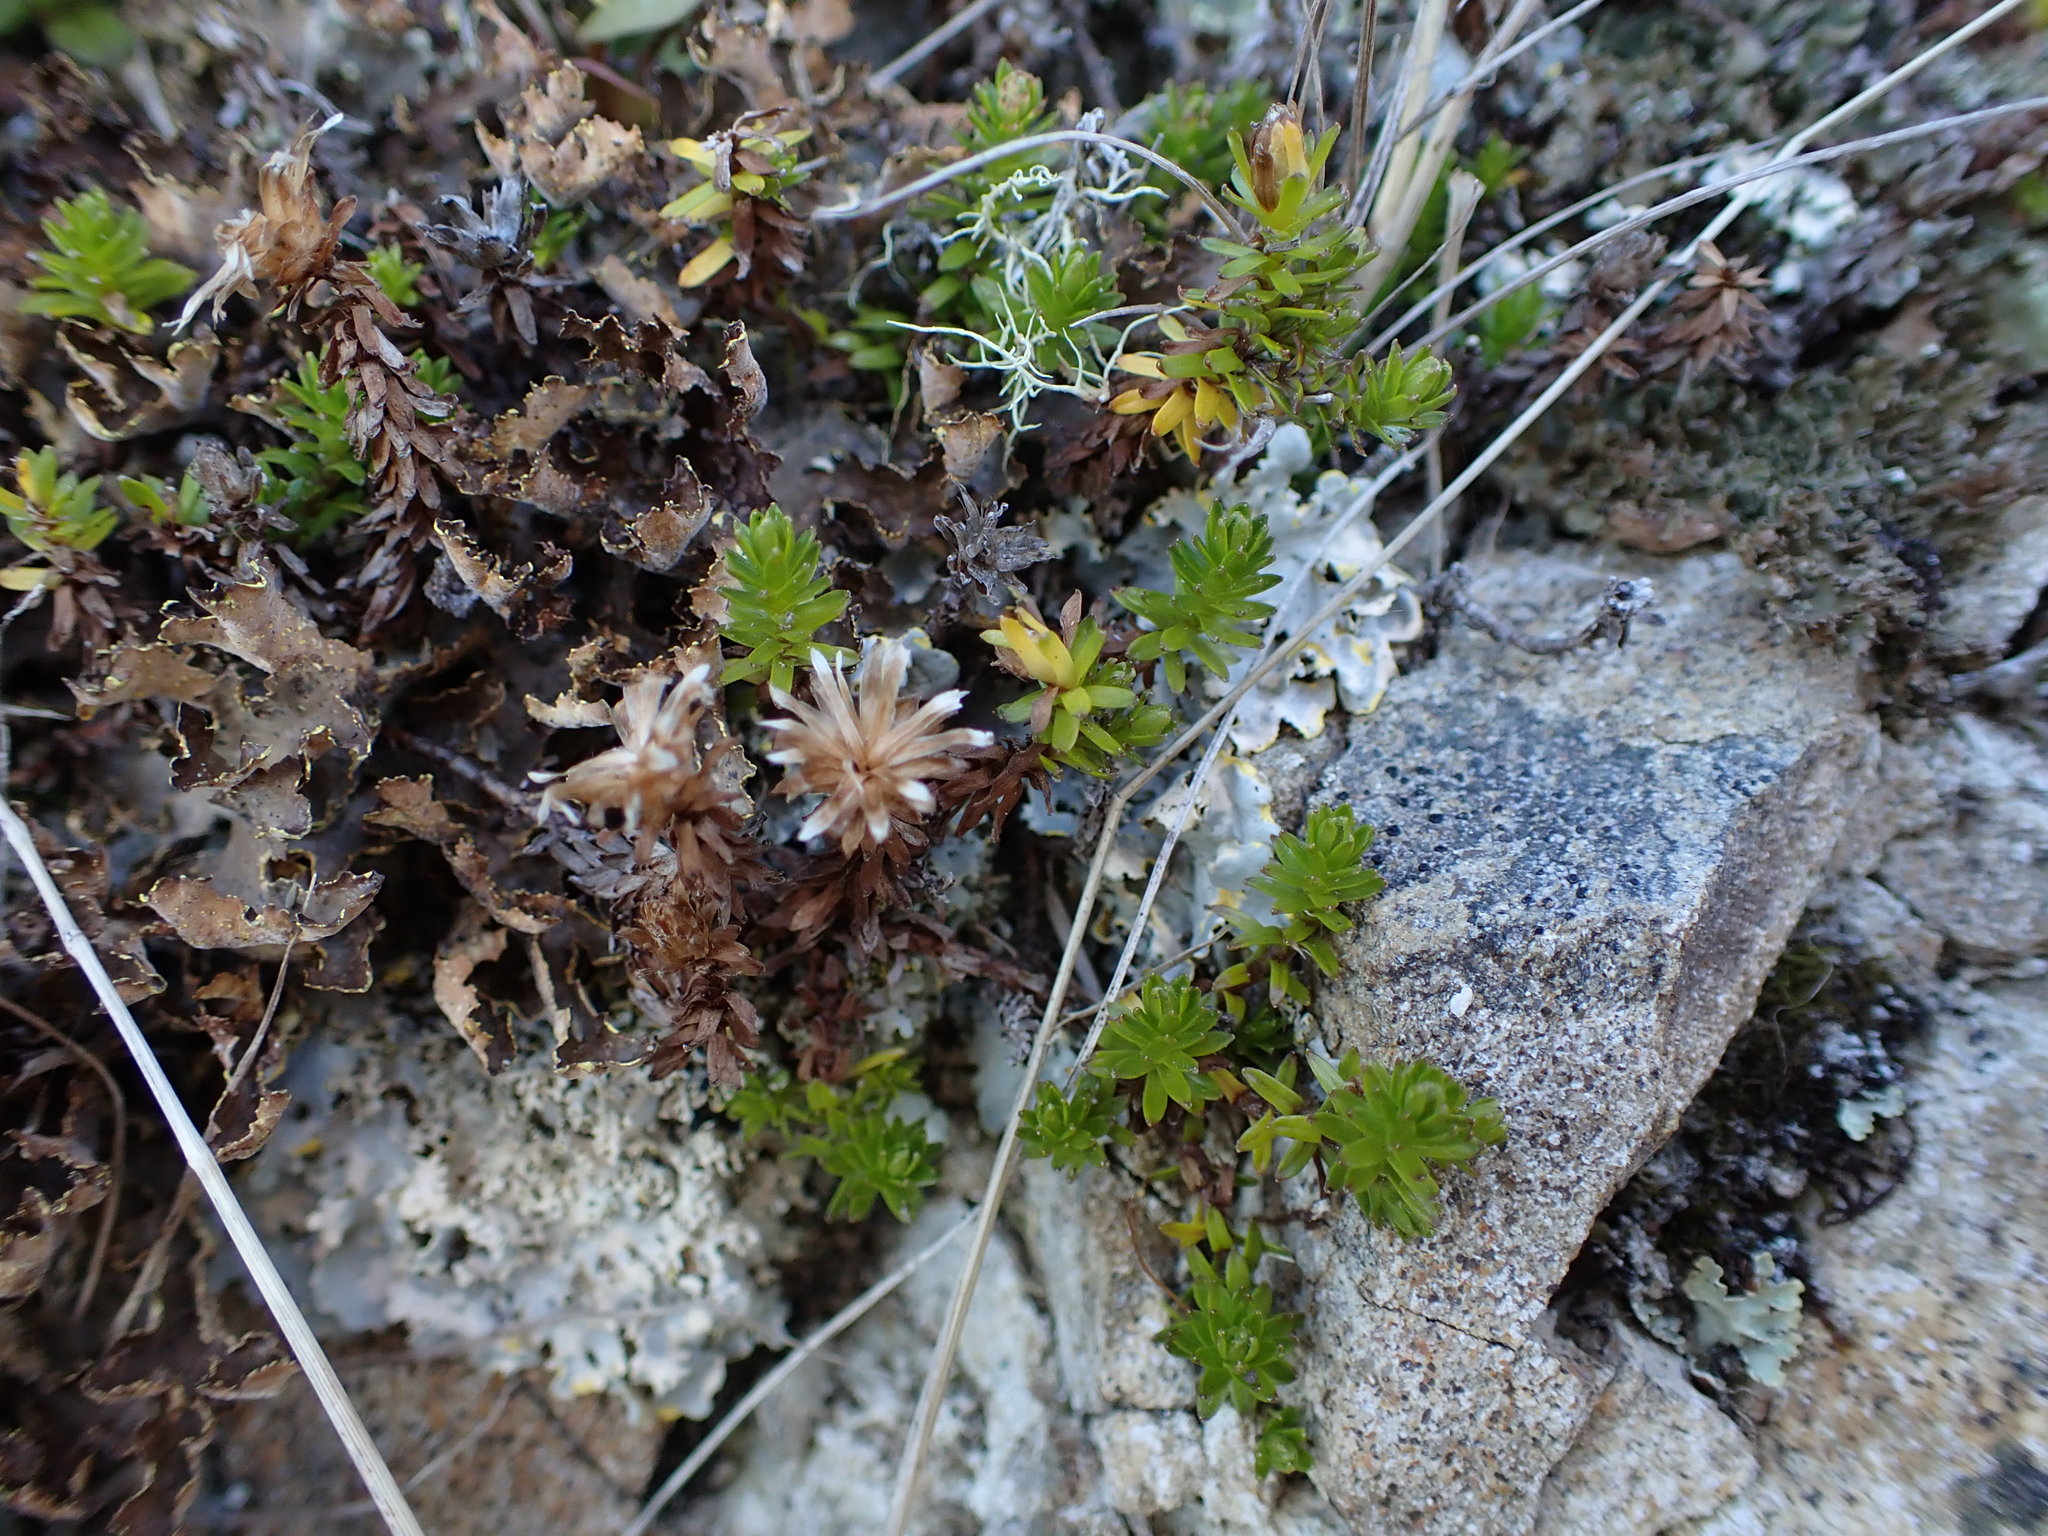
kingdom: Plantae
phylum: Tracheophyta
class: Magnoliopsida
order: Asterales
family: Asteraceae
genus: Raoulia
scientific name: Raoulia glabra
